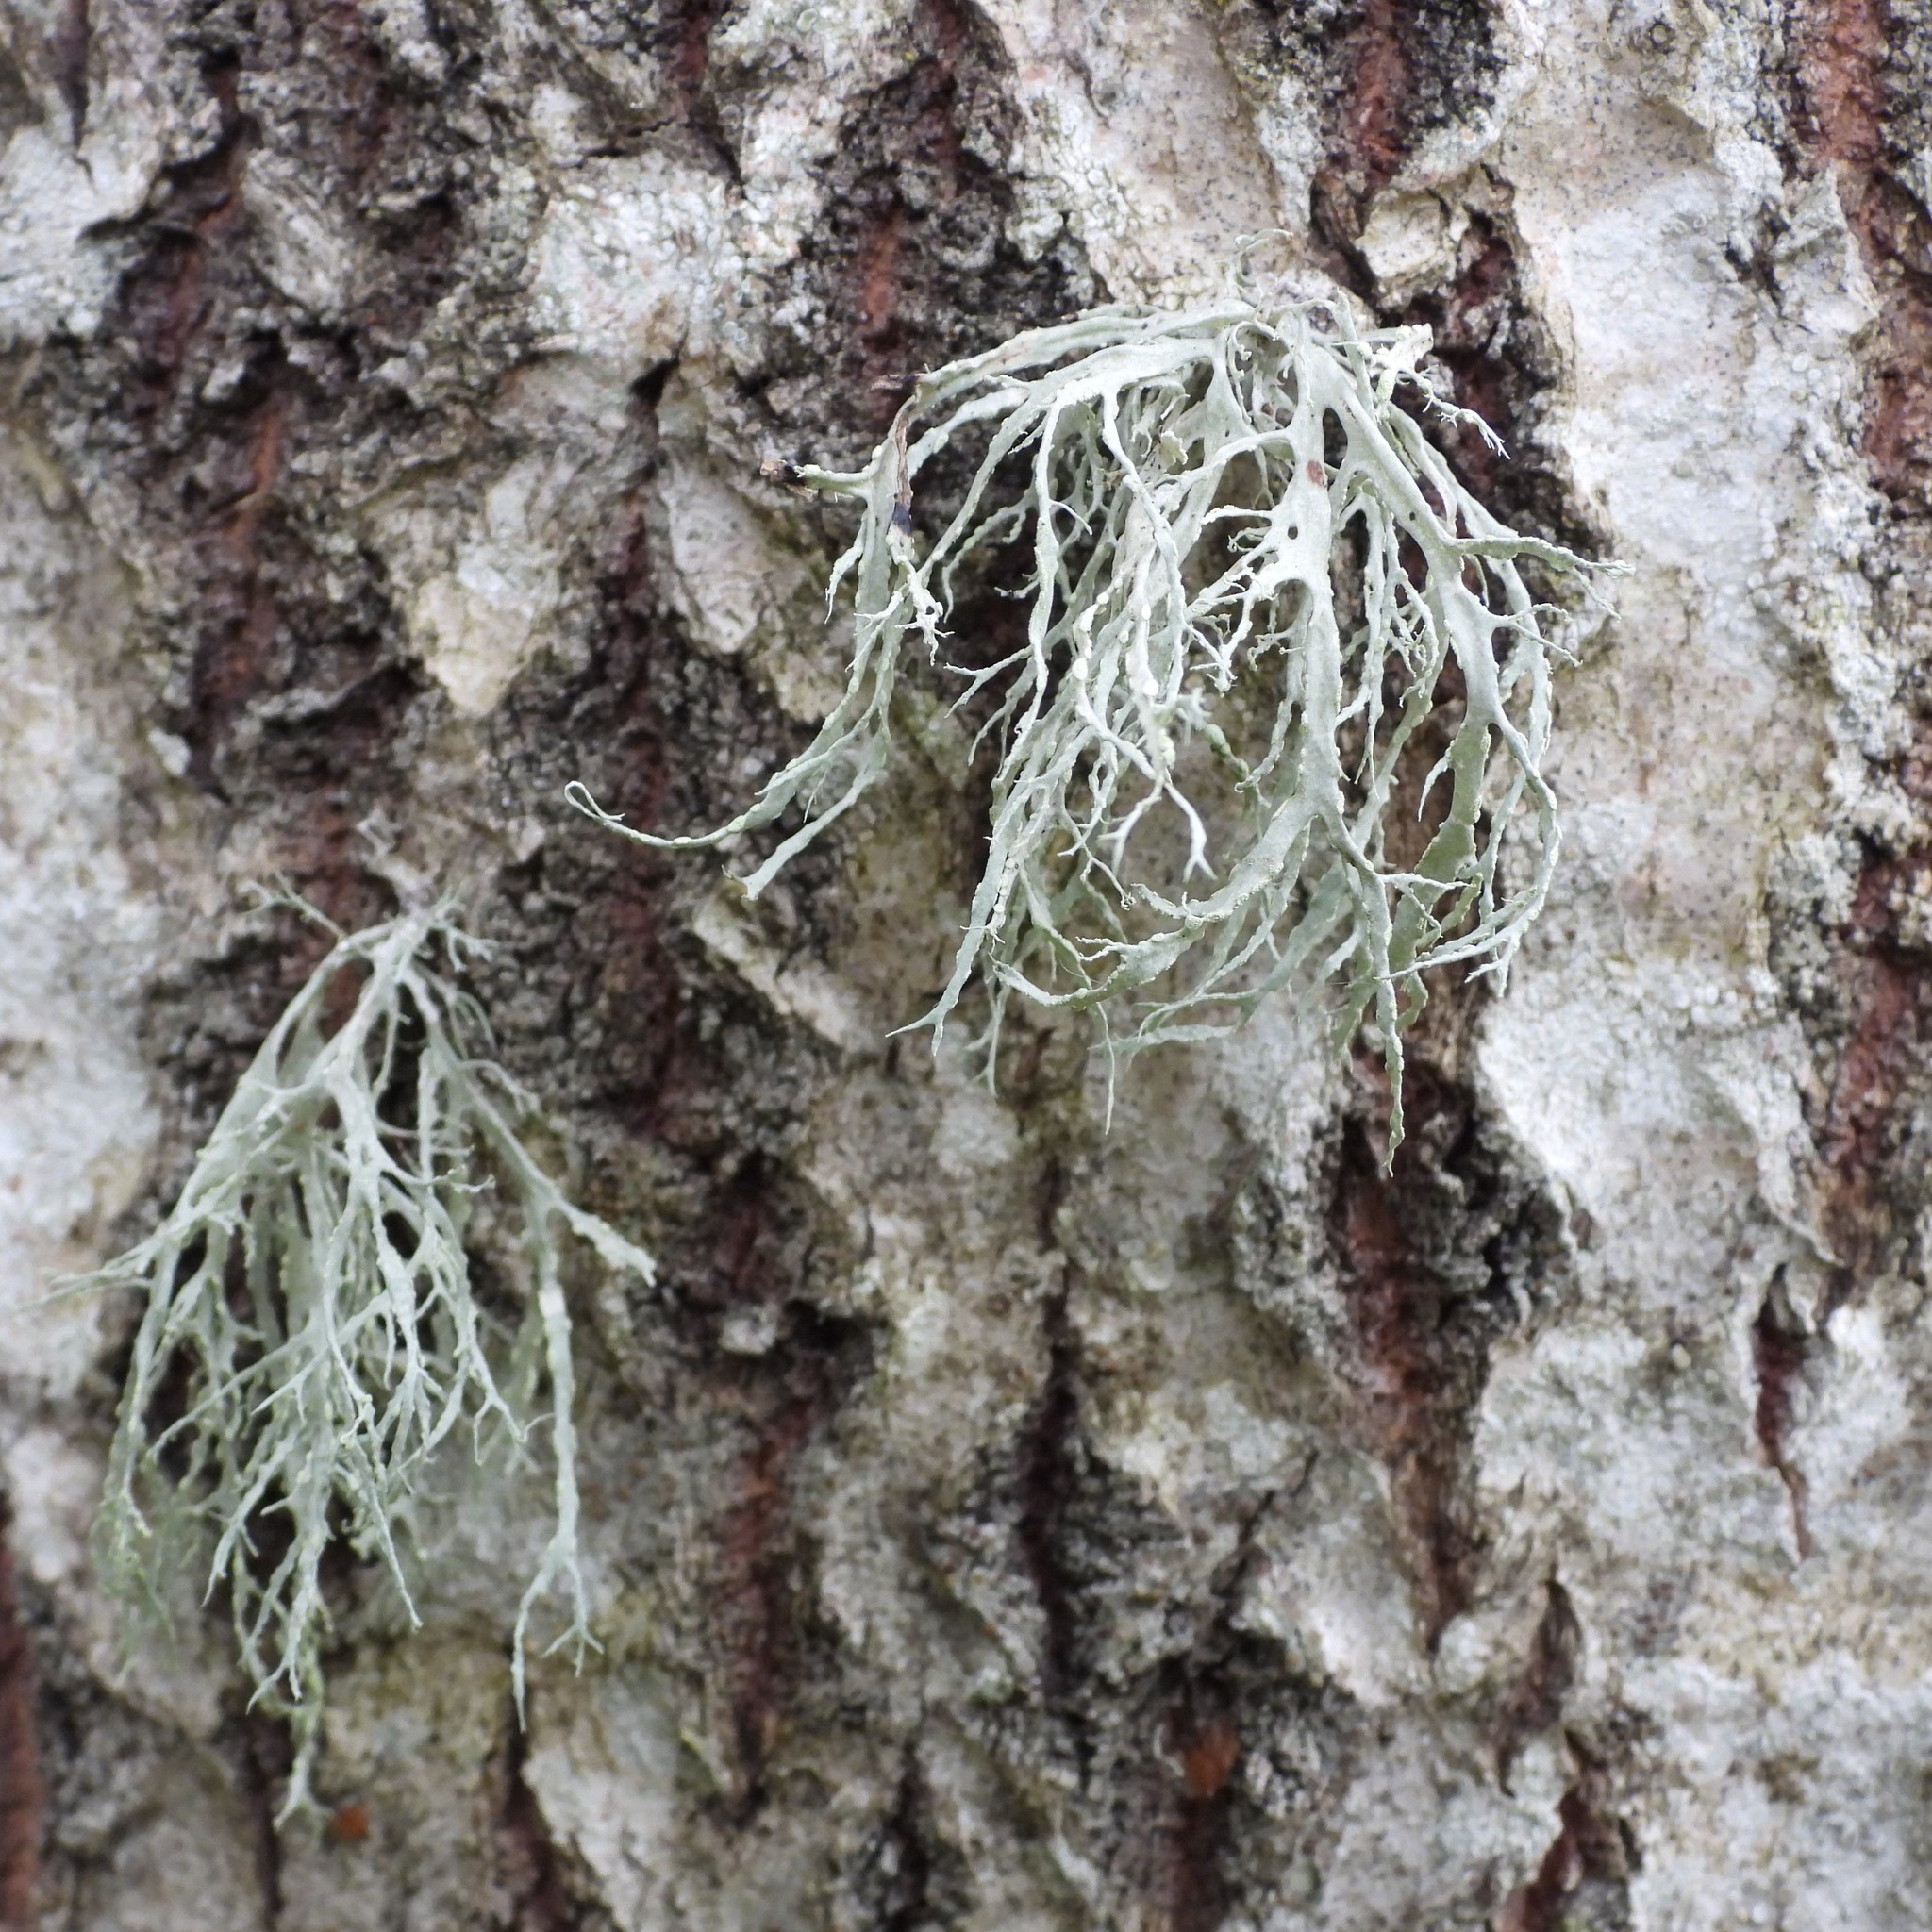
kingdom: Fungi
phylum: Ascomycota
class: Lecanoromycetes
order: Lecanorales
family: Ramalinaceae
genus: Ramalina
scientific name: Ramalina farinacea
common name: Farinose cartilage lichen
